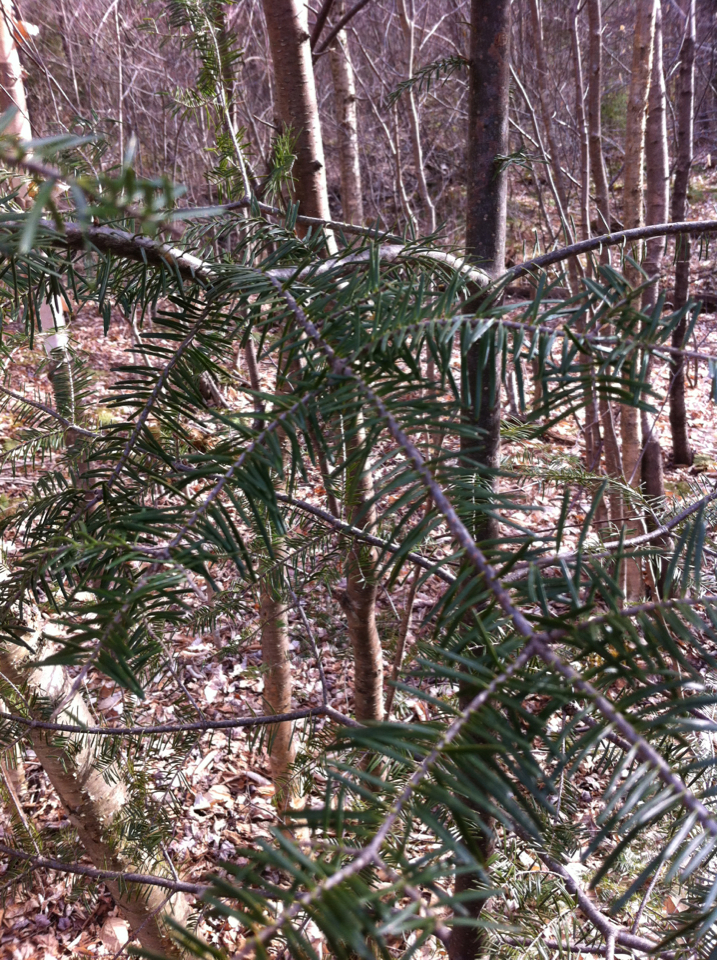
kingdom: Plantae
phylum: Tracheophyta
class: Pinopsida
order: Pinales
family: Pinaceae
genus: Abies
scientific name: Abies balsamea
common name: Balsam fir
